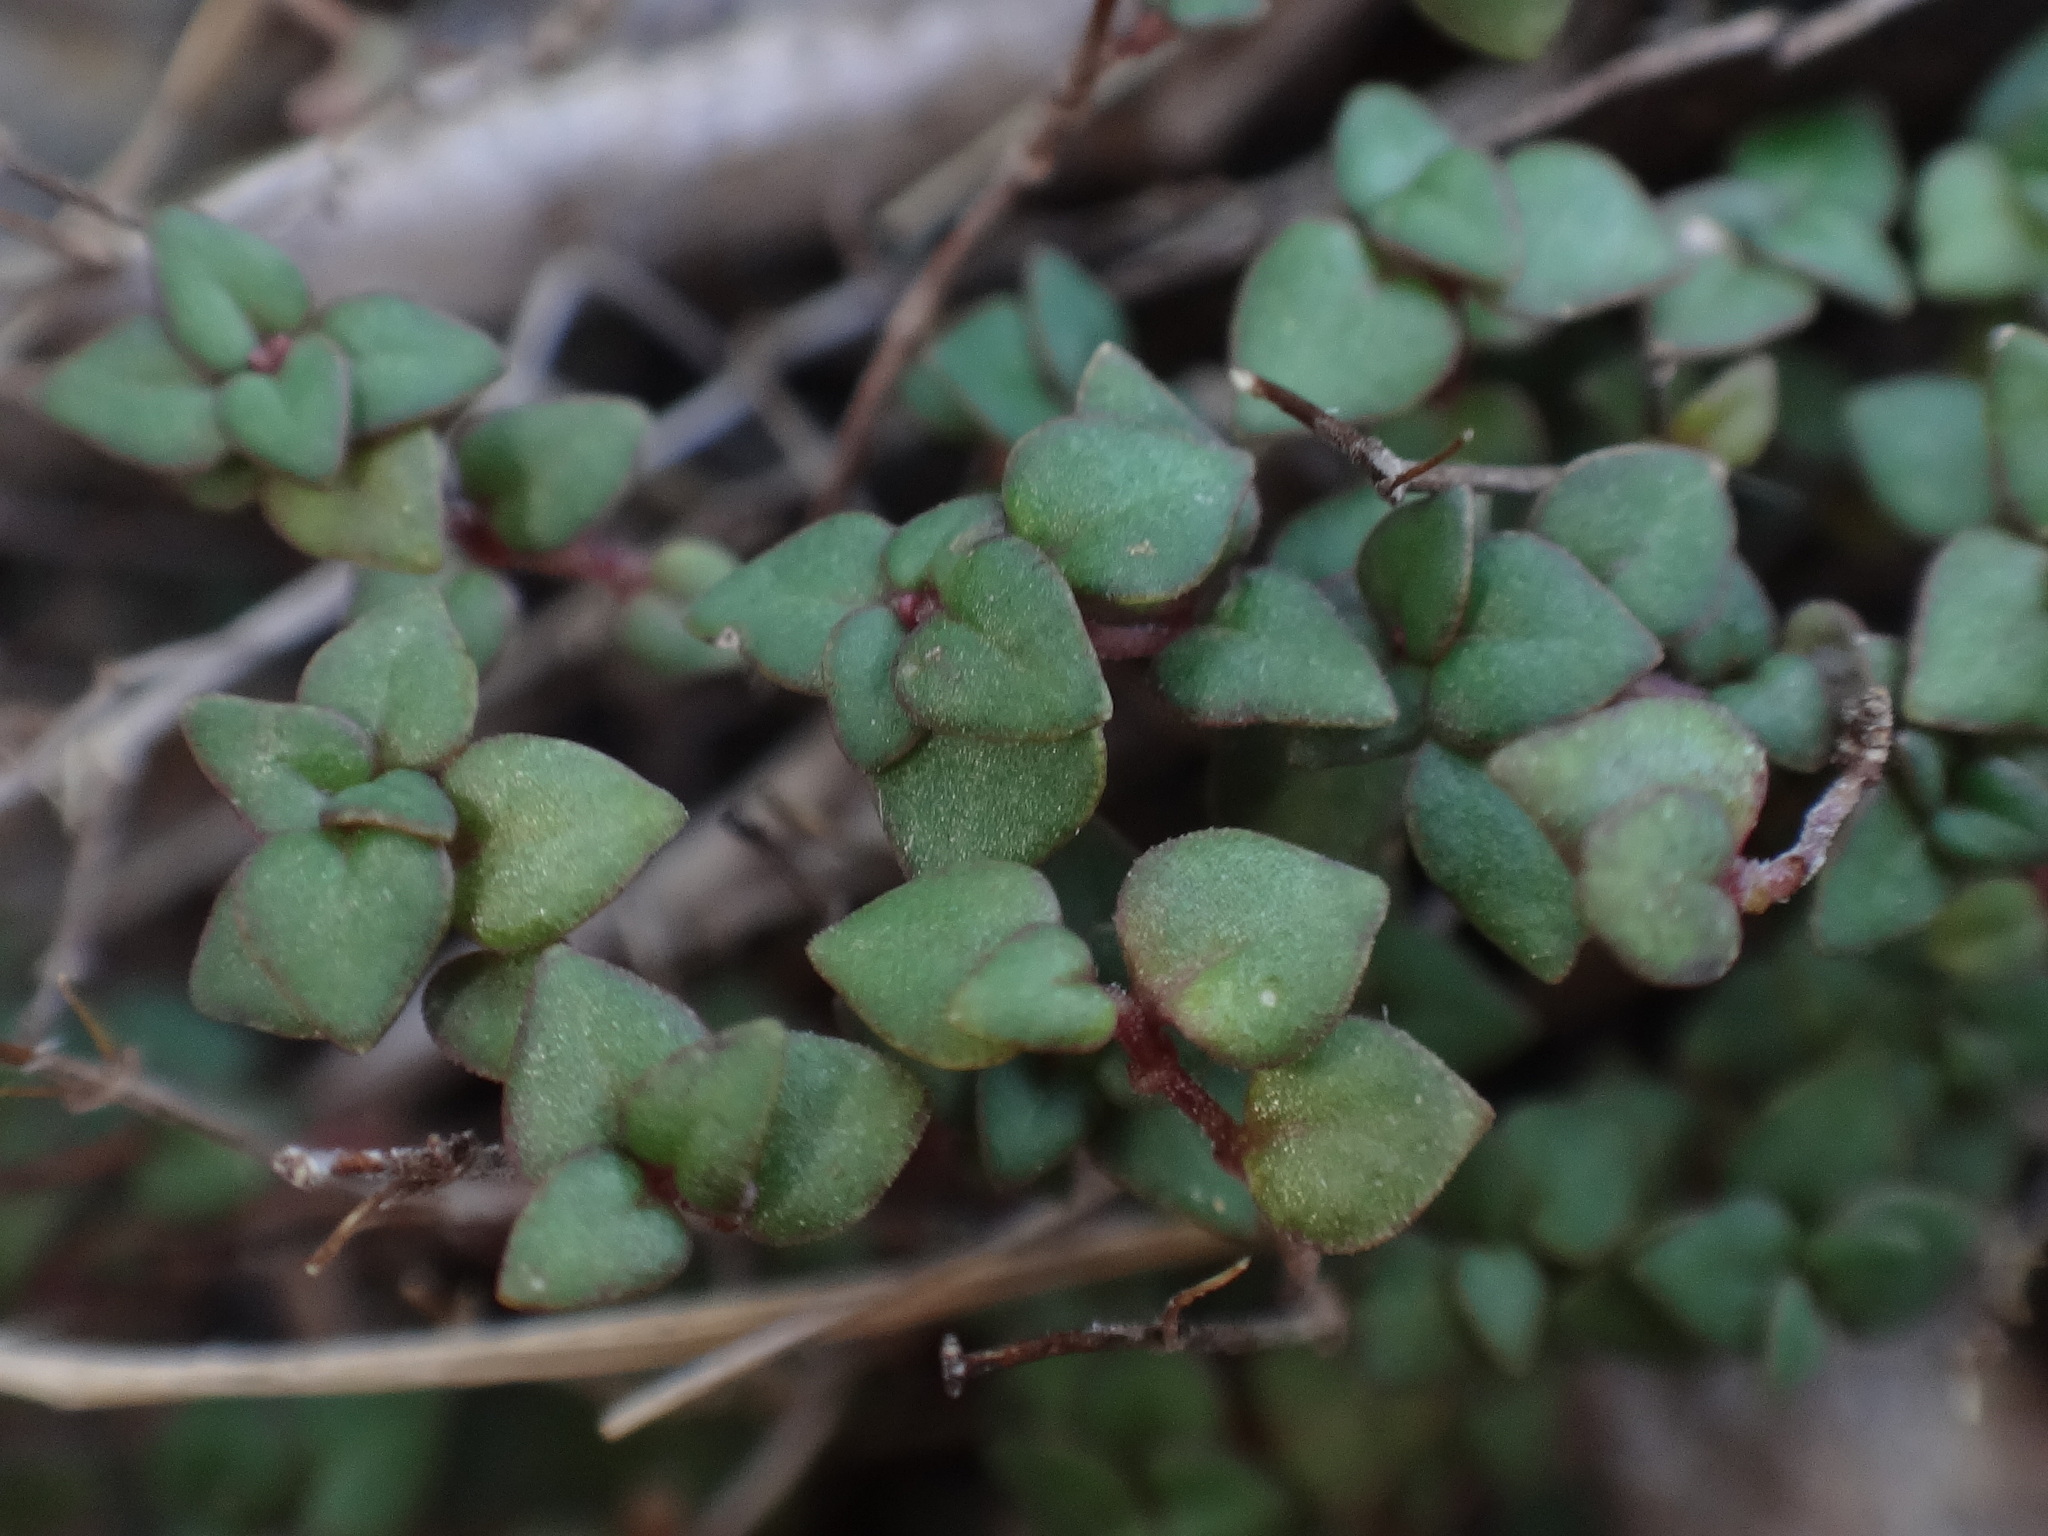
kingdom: Plantae
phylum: Tracheophyta
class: Magnoliopsida
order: Lamiales
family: Lamiaceae
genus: Micromeria
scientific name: Micromeria filiformis
